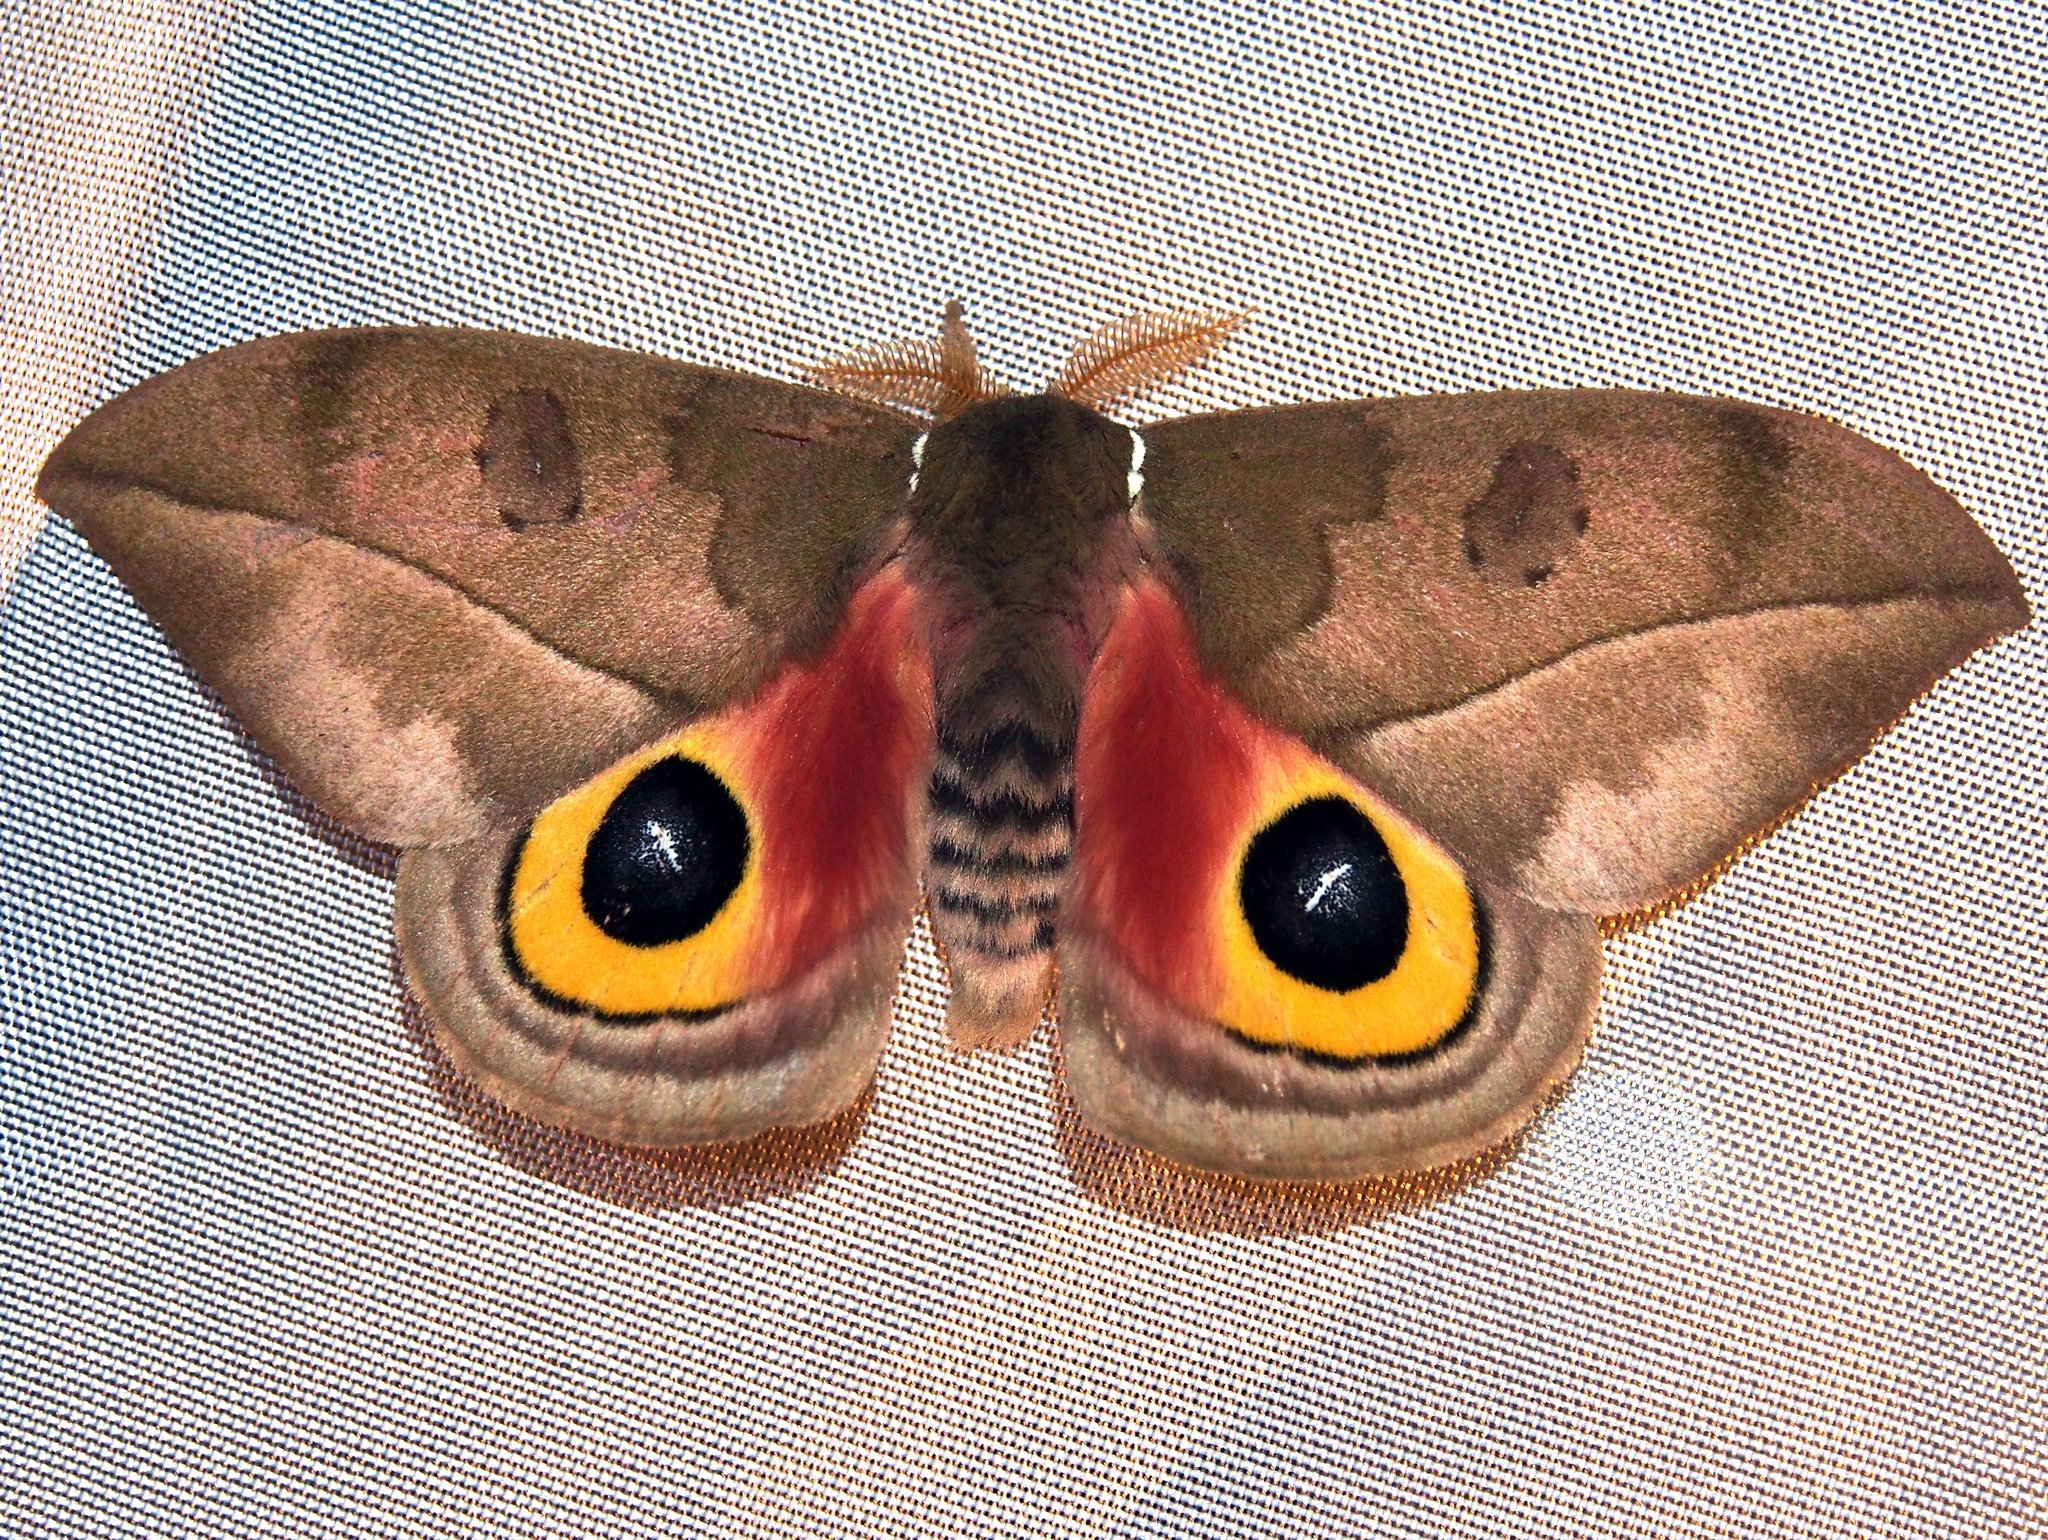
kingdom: Animalia
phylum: Arthropoda
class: Insecta
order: Lepidoptera
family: Saturniidae
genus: Automeris
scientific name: Automeris zugana
